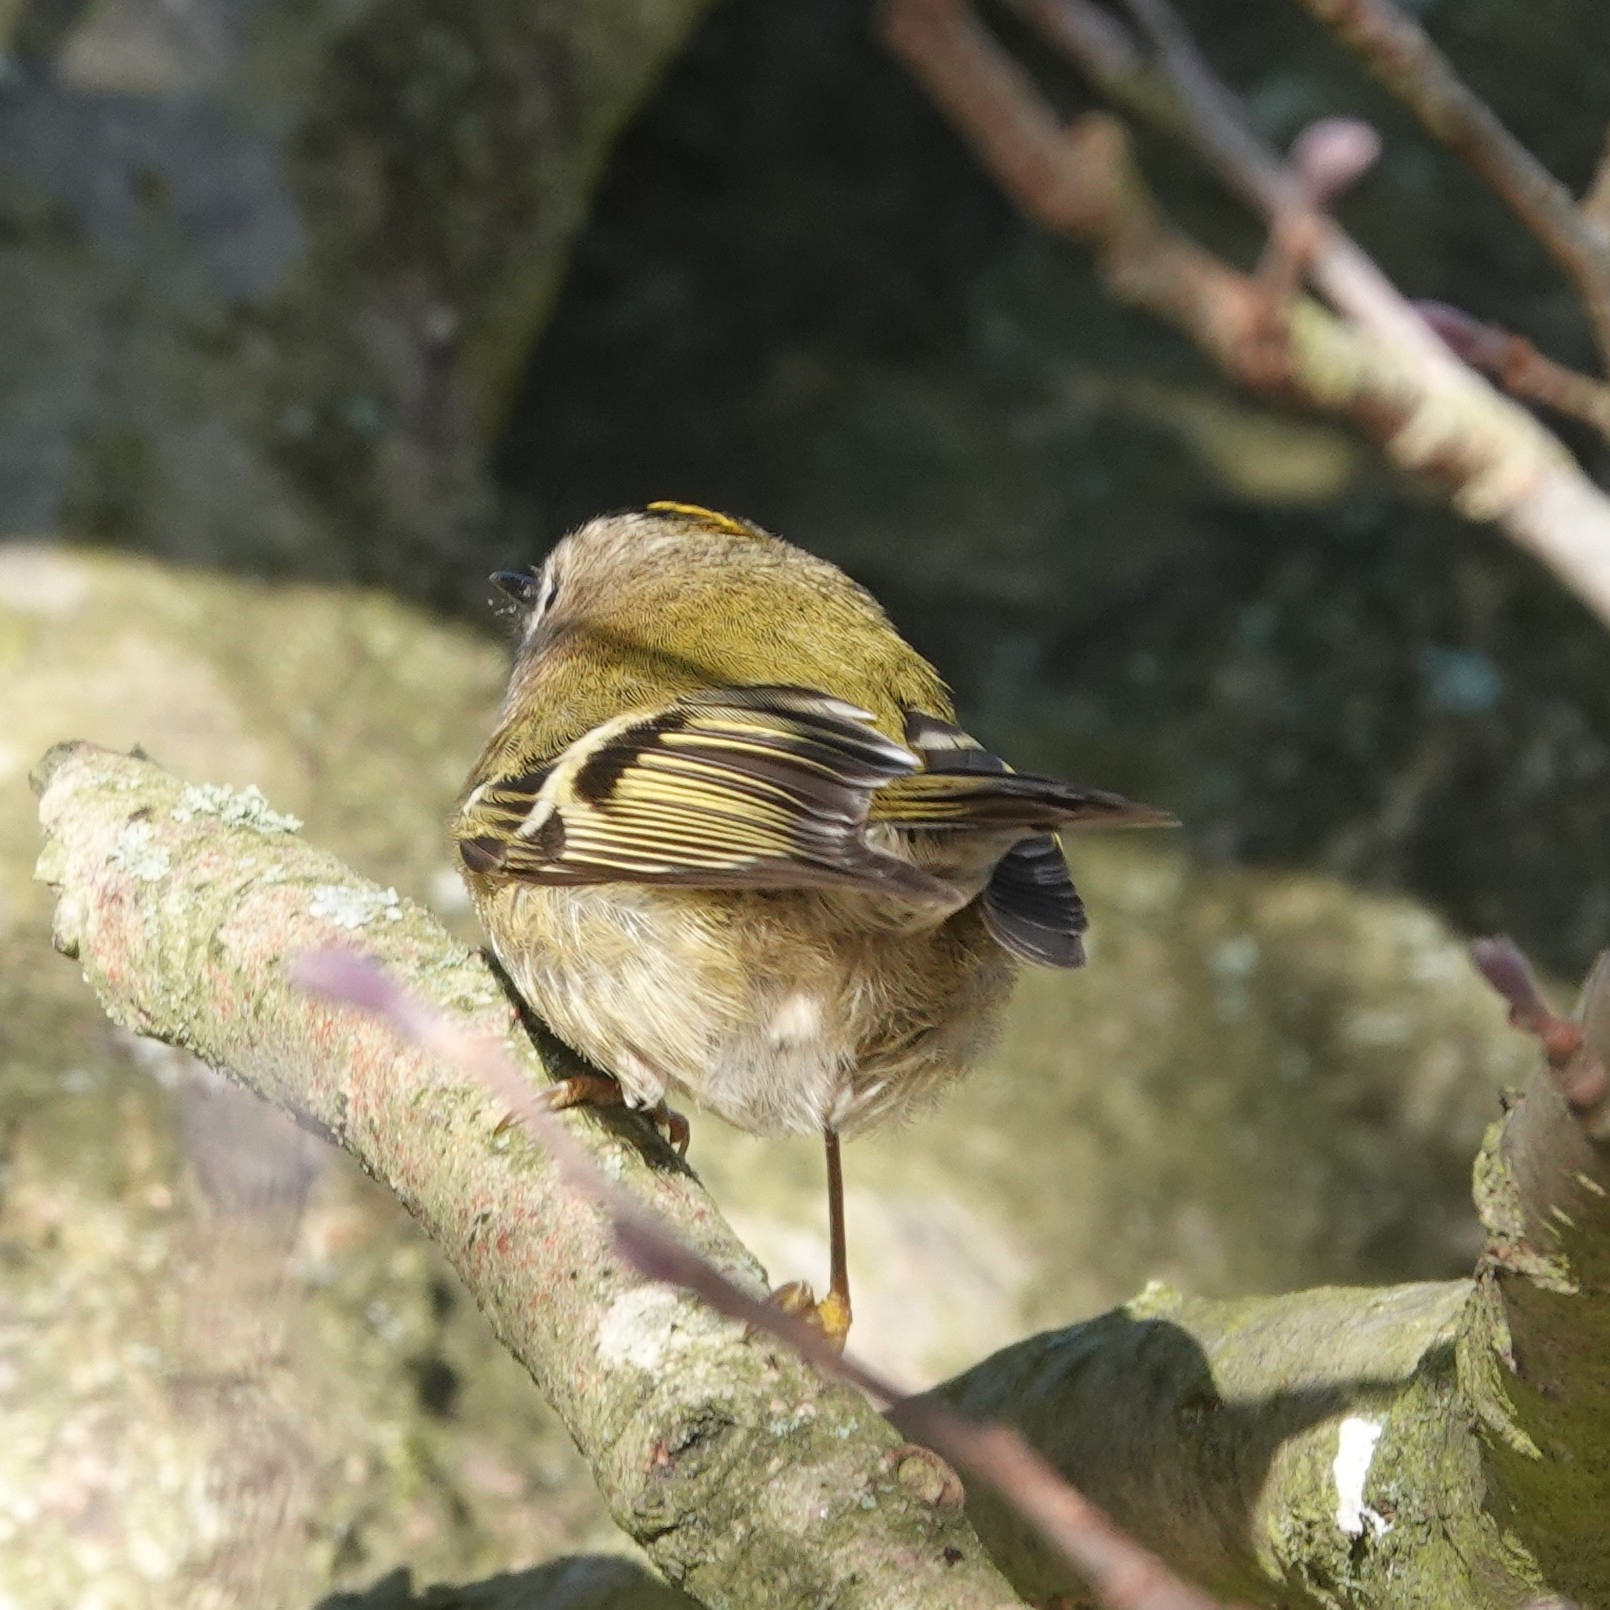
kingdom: Animalia
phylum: Chordata
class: Aves
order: Passeriformes
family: Regulidae
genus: Regulus
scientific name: Regulus regulus
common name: Goldcrest
